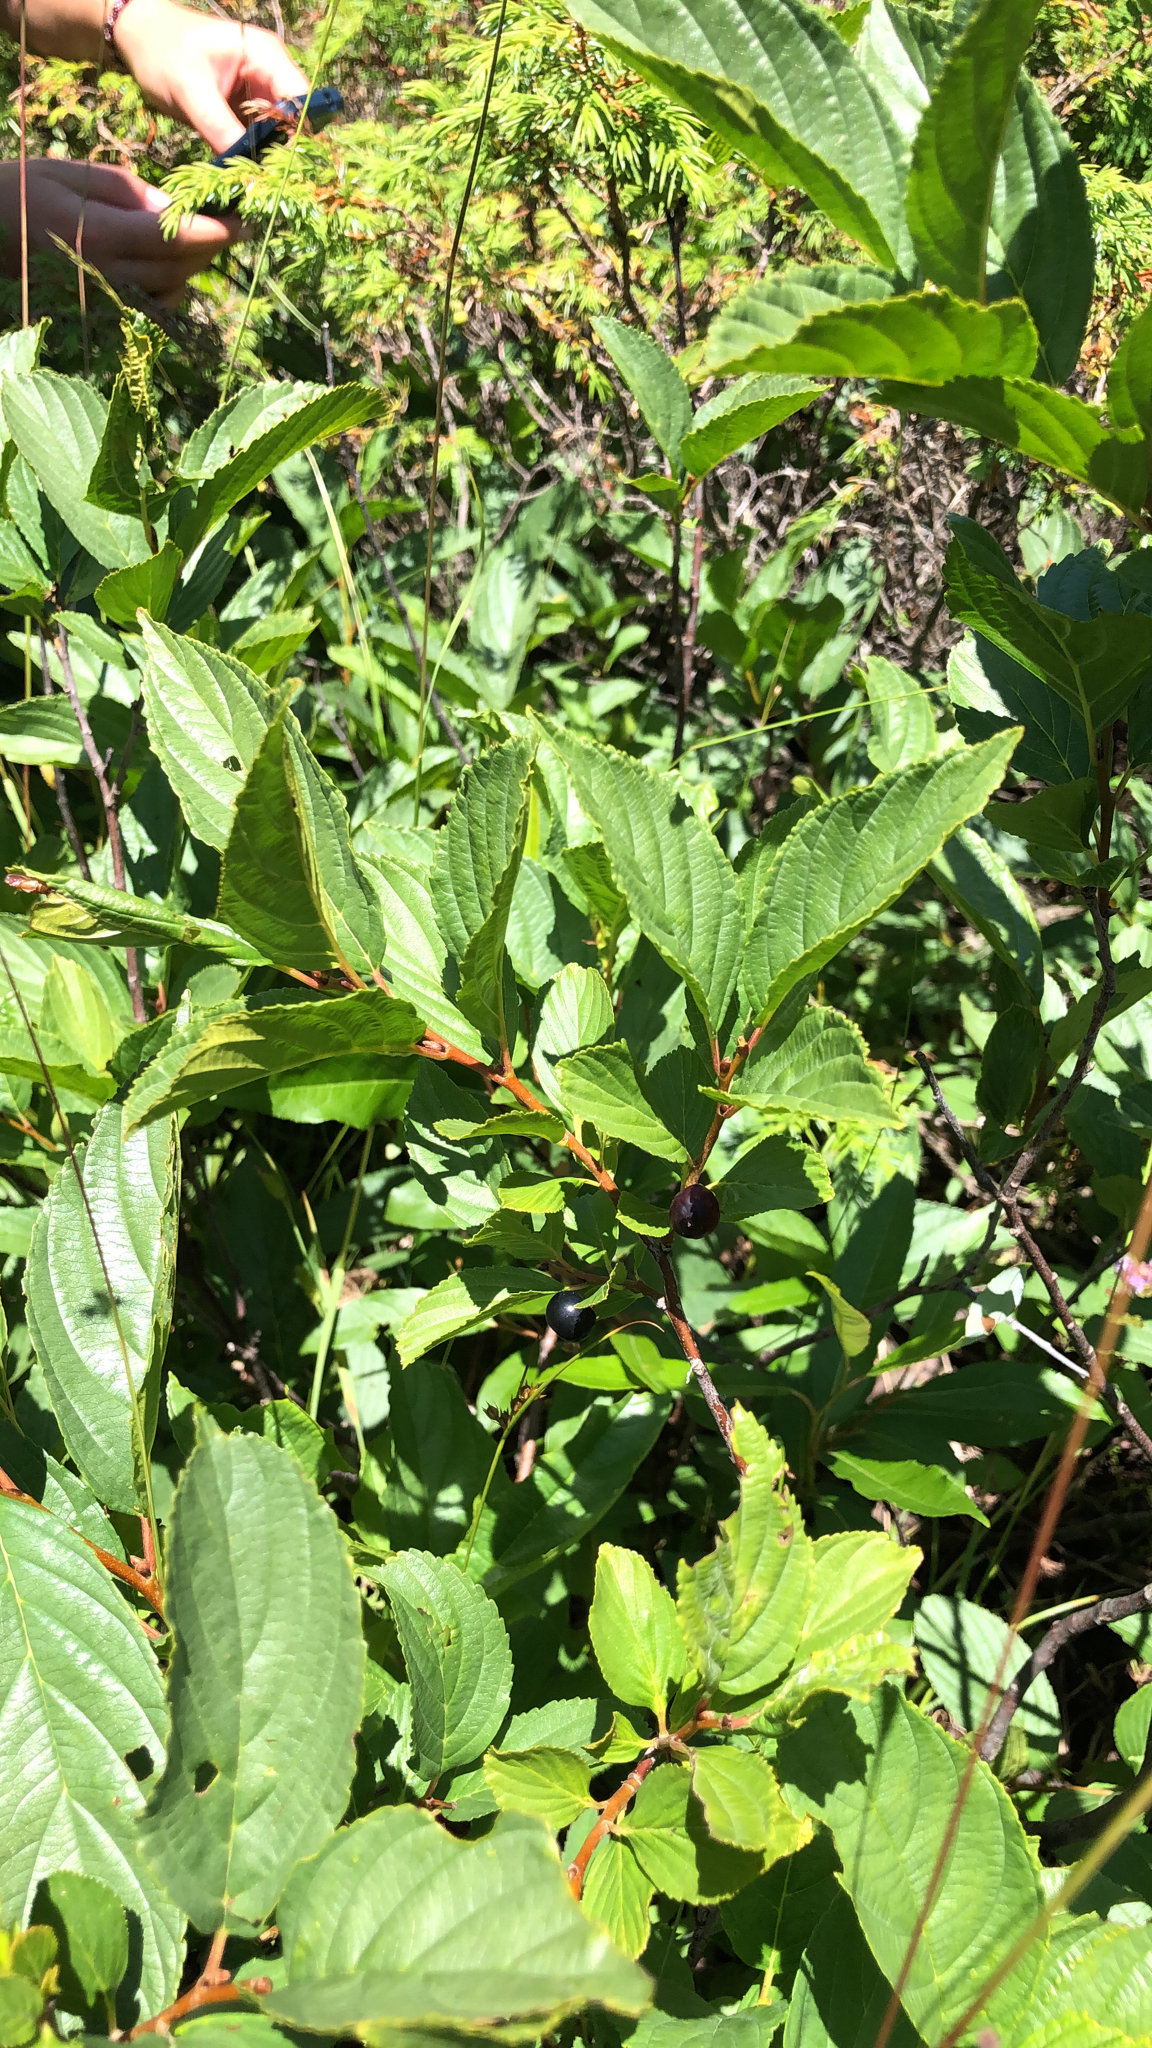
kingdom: Plantae
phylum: Tracheophyta
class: Magnoliopsida
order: Rosales
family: Rhamnaceae
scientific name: Rhamnaceae
